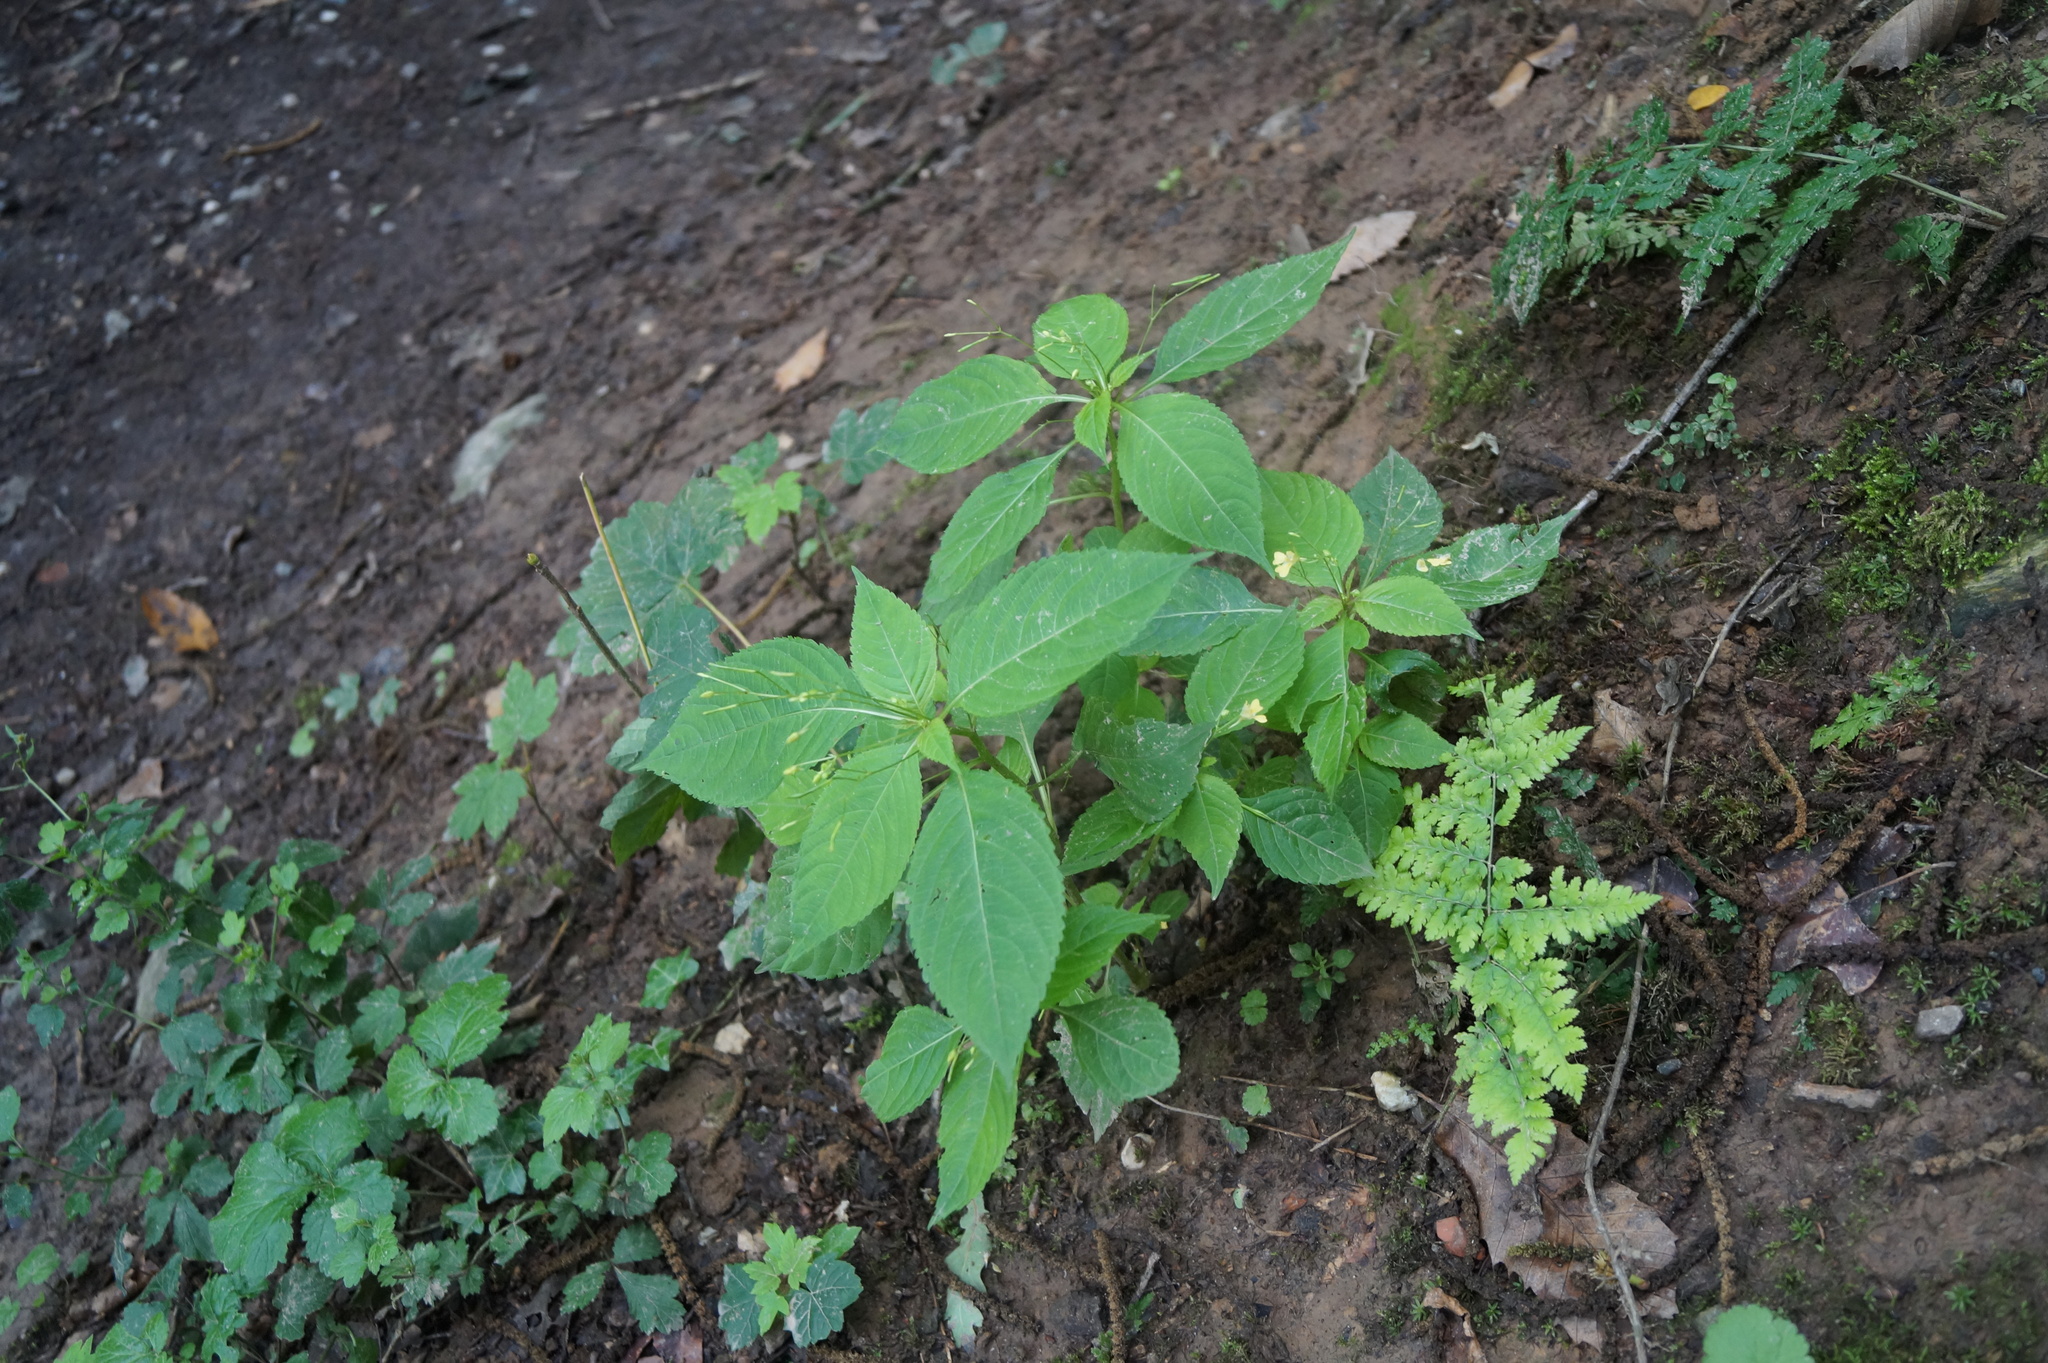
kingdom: Plantae
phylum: Tracheophyta
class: Magnoliopsida
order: Ericales
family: Balsaminaceae
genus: Impatiens
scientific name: Impatiens parviflora
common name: Small balsam
